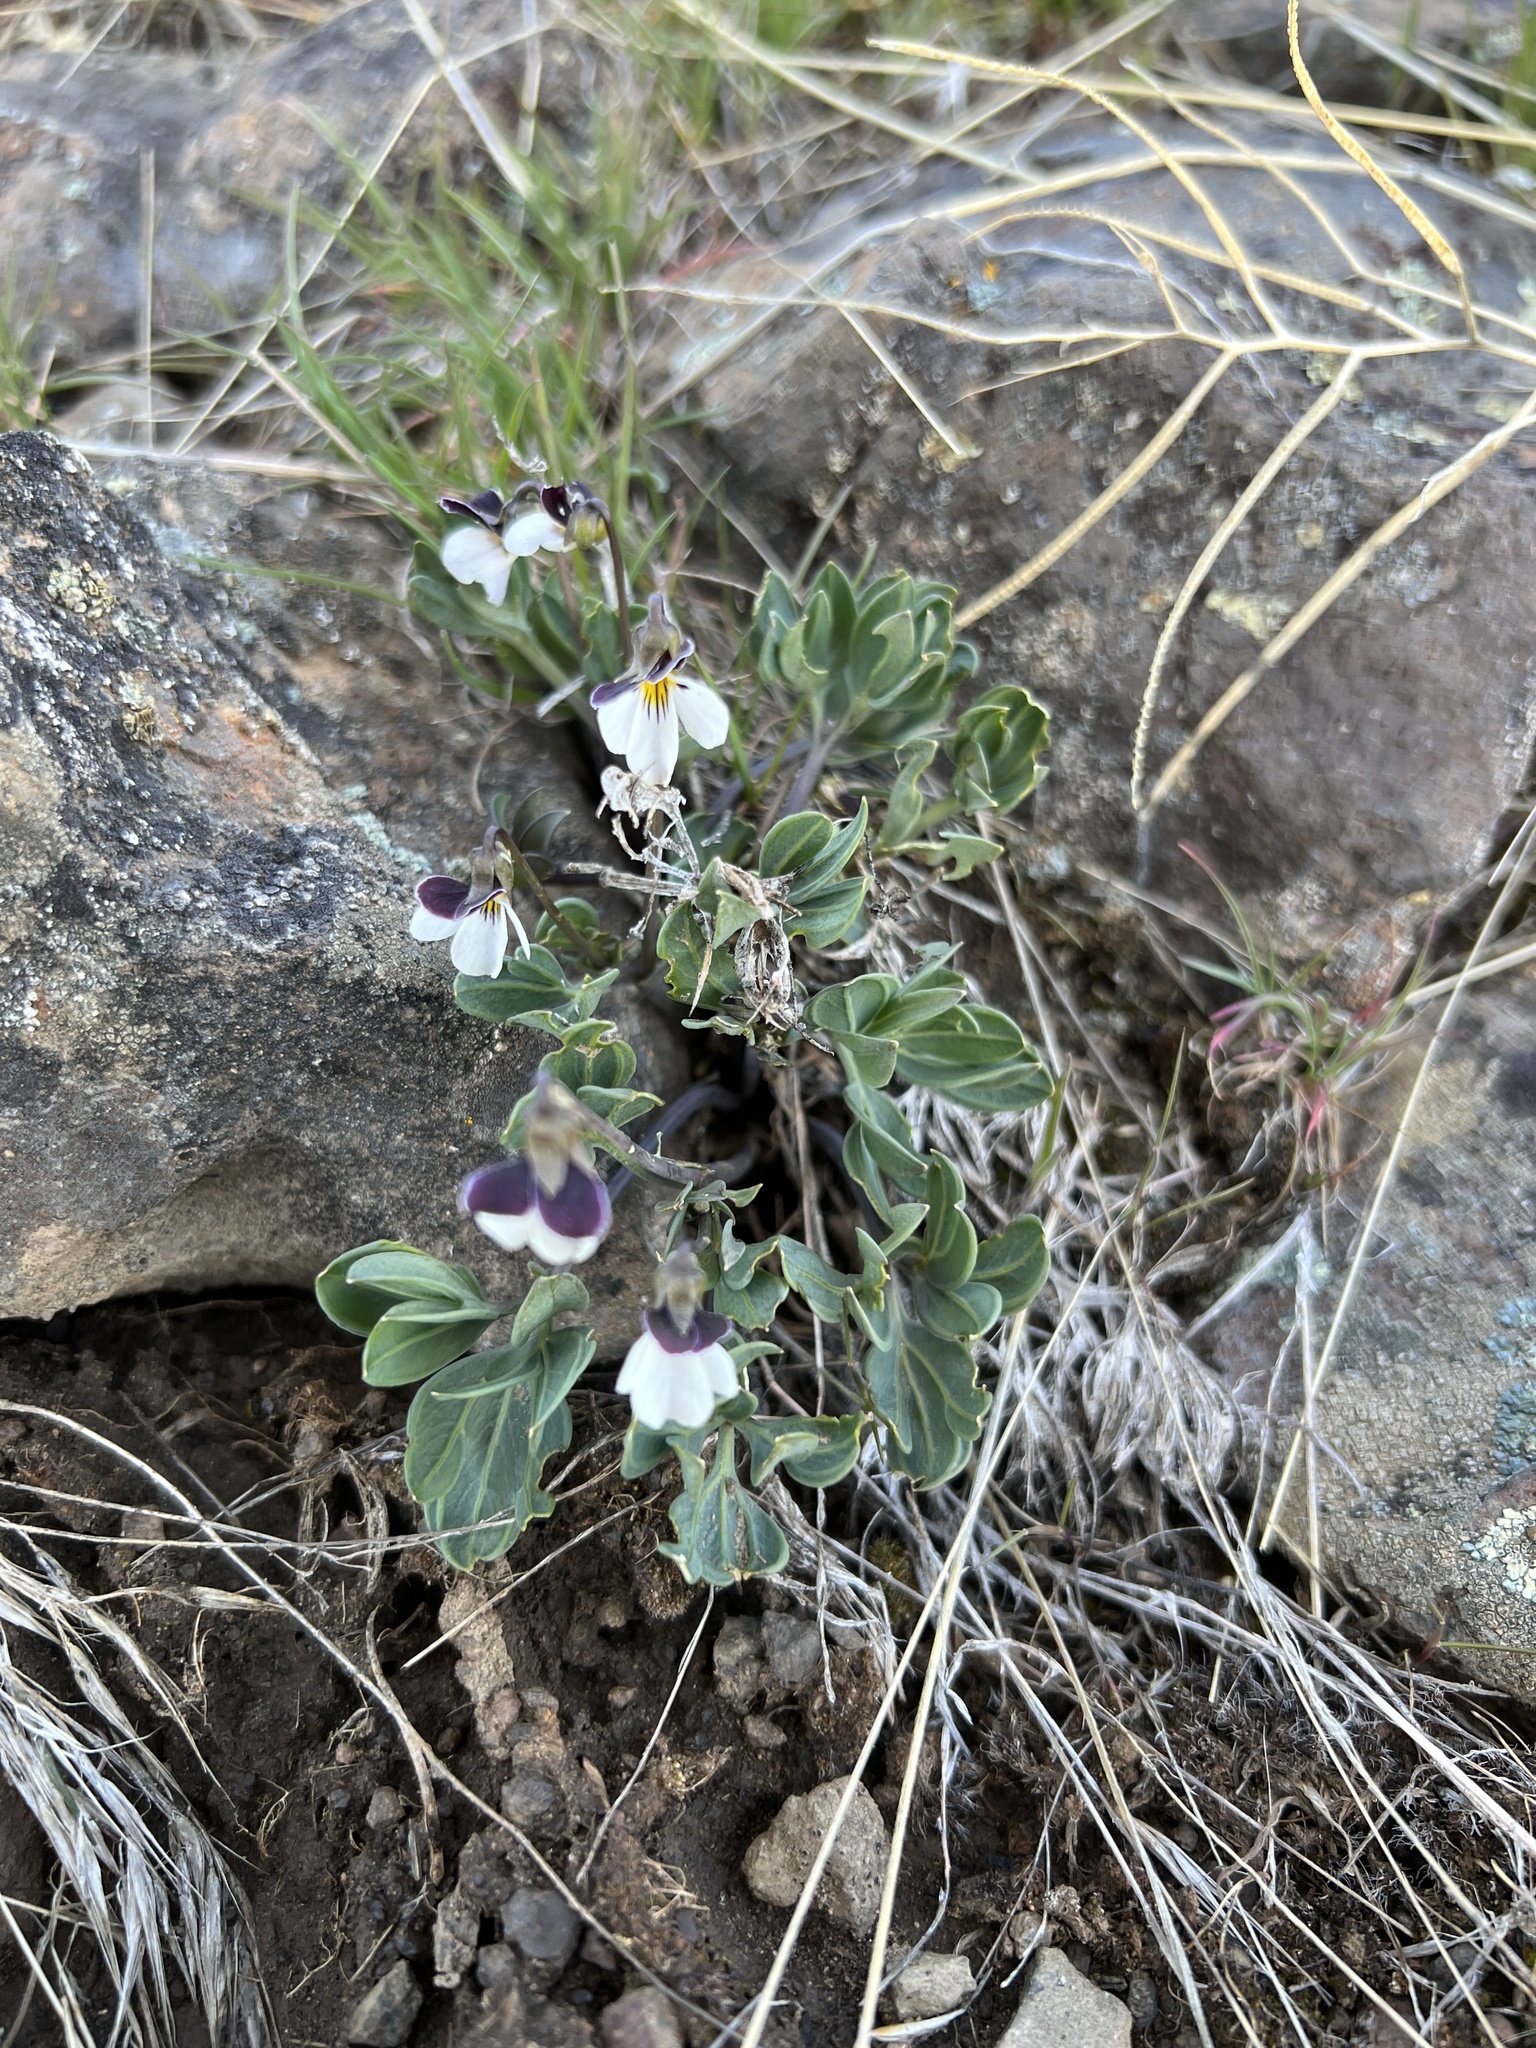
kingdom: Plantae
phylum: Tracheophyta
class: Magnoliopsida
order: Malpighiales
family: Violaceae
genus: Viola
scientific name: Viola trinervata
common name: Sagebrush violet
